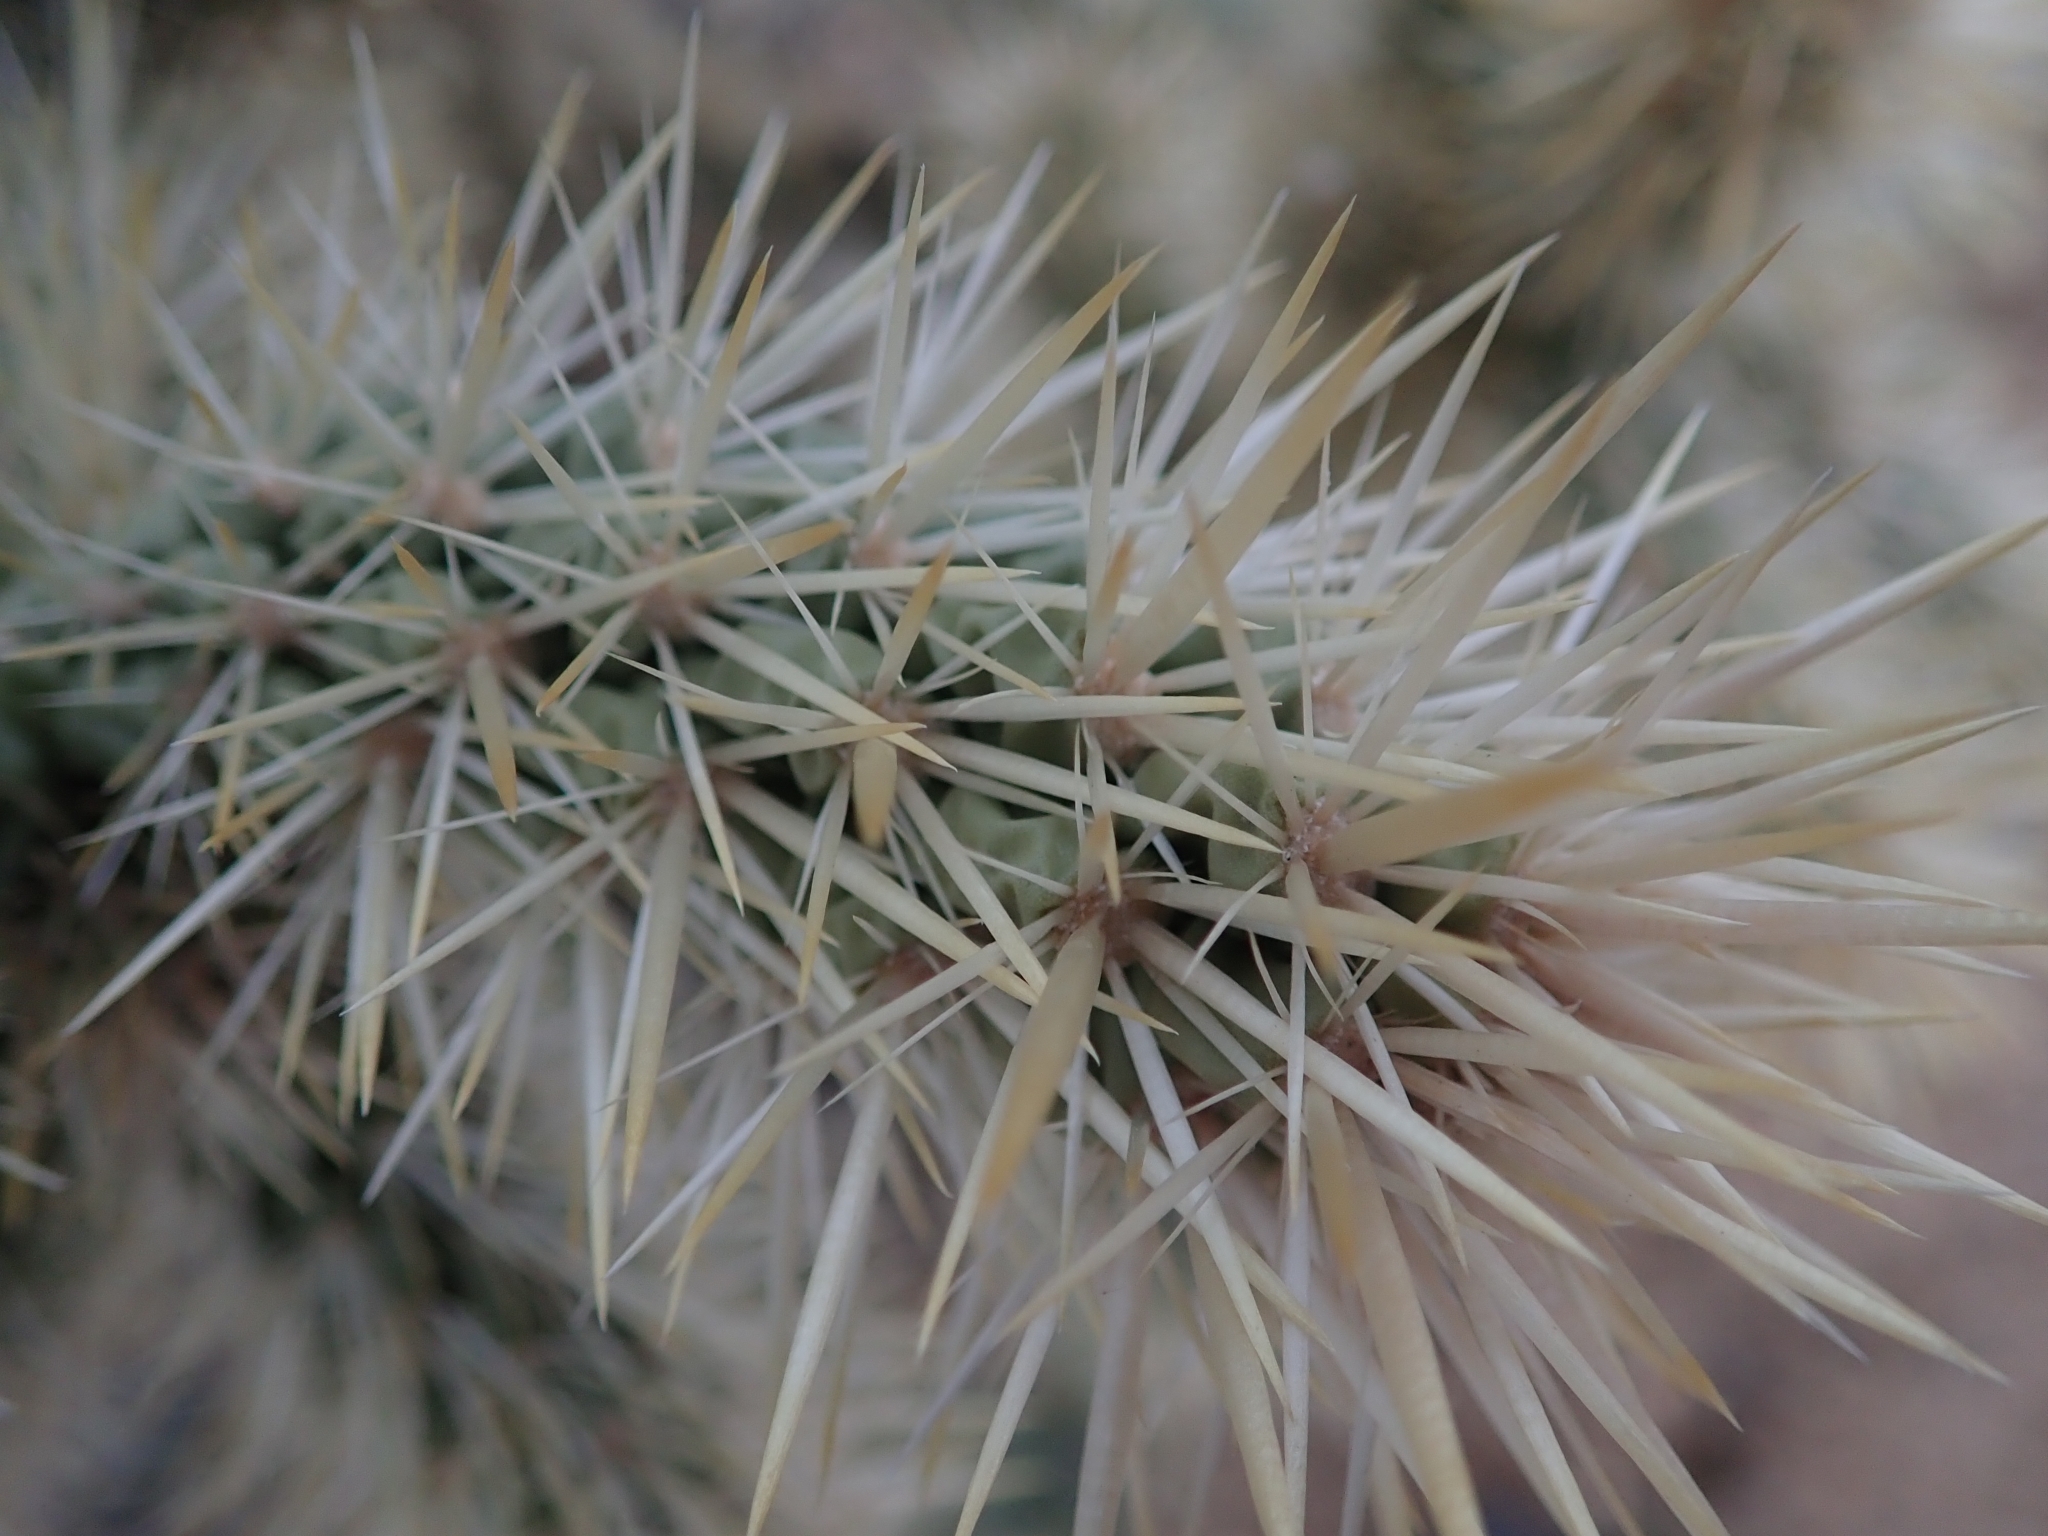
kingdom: Plantae
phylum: Tracheophyta
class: Magnoliopsida
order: Caryophyllales
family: Cactaceae
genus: Cylindropuntia
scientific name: Cylindropuntia echinocarpa
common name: Ground cholla
